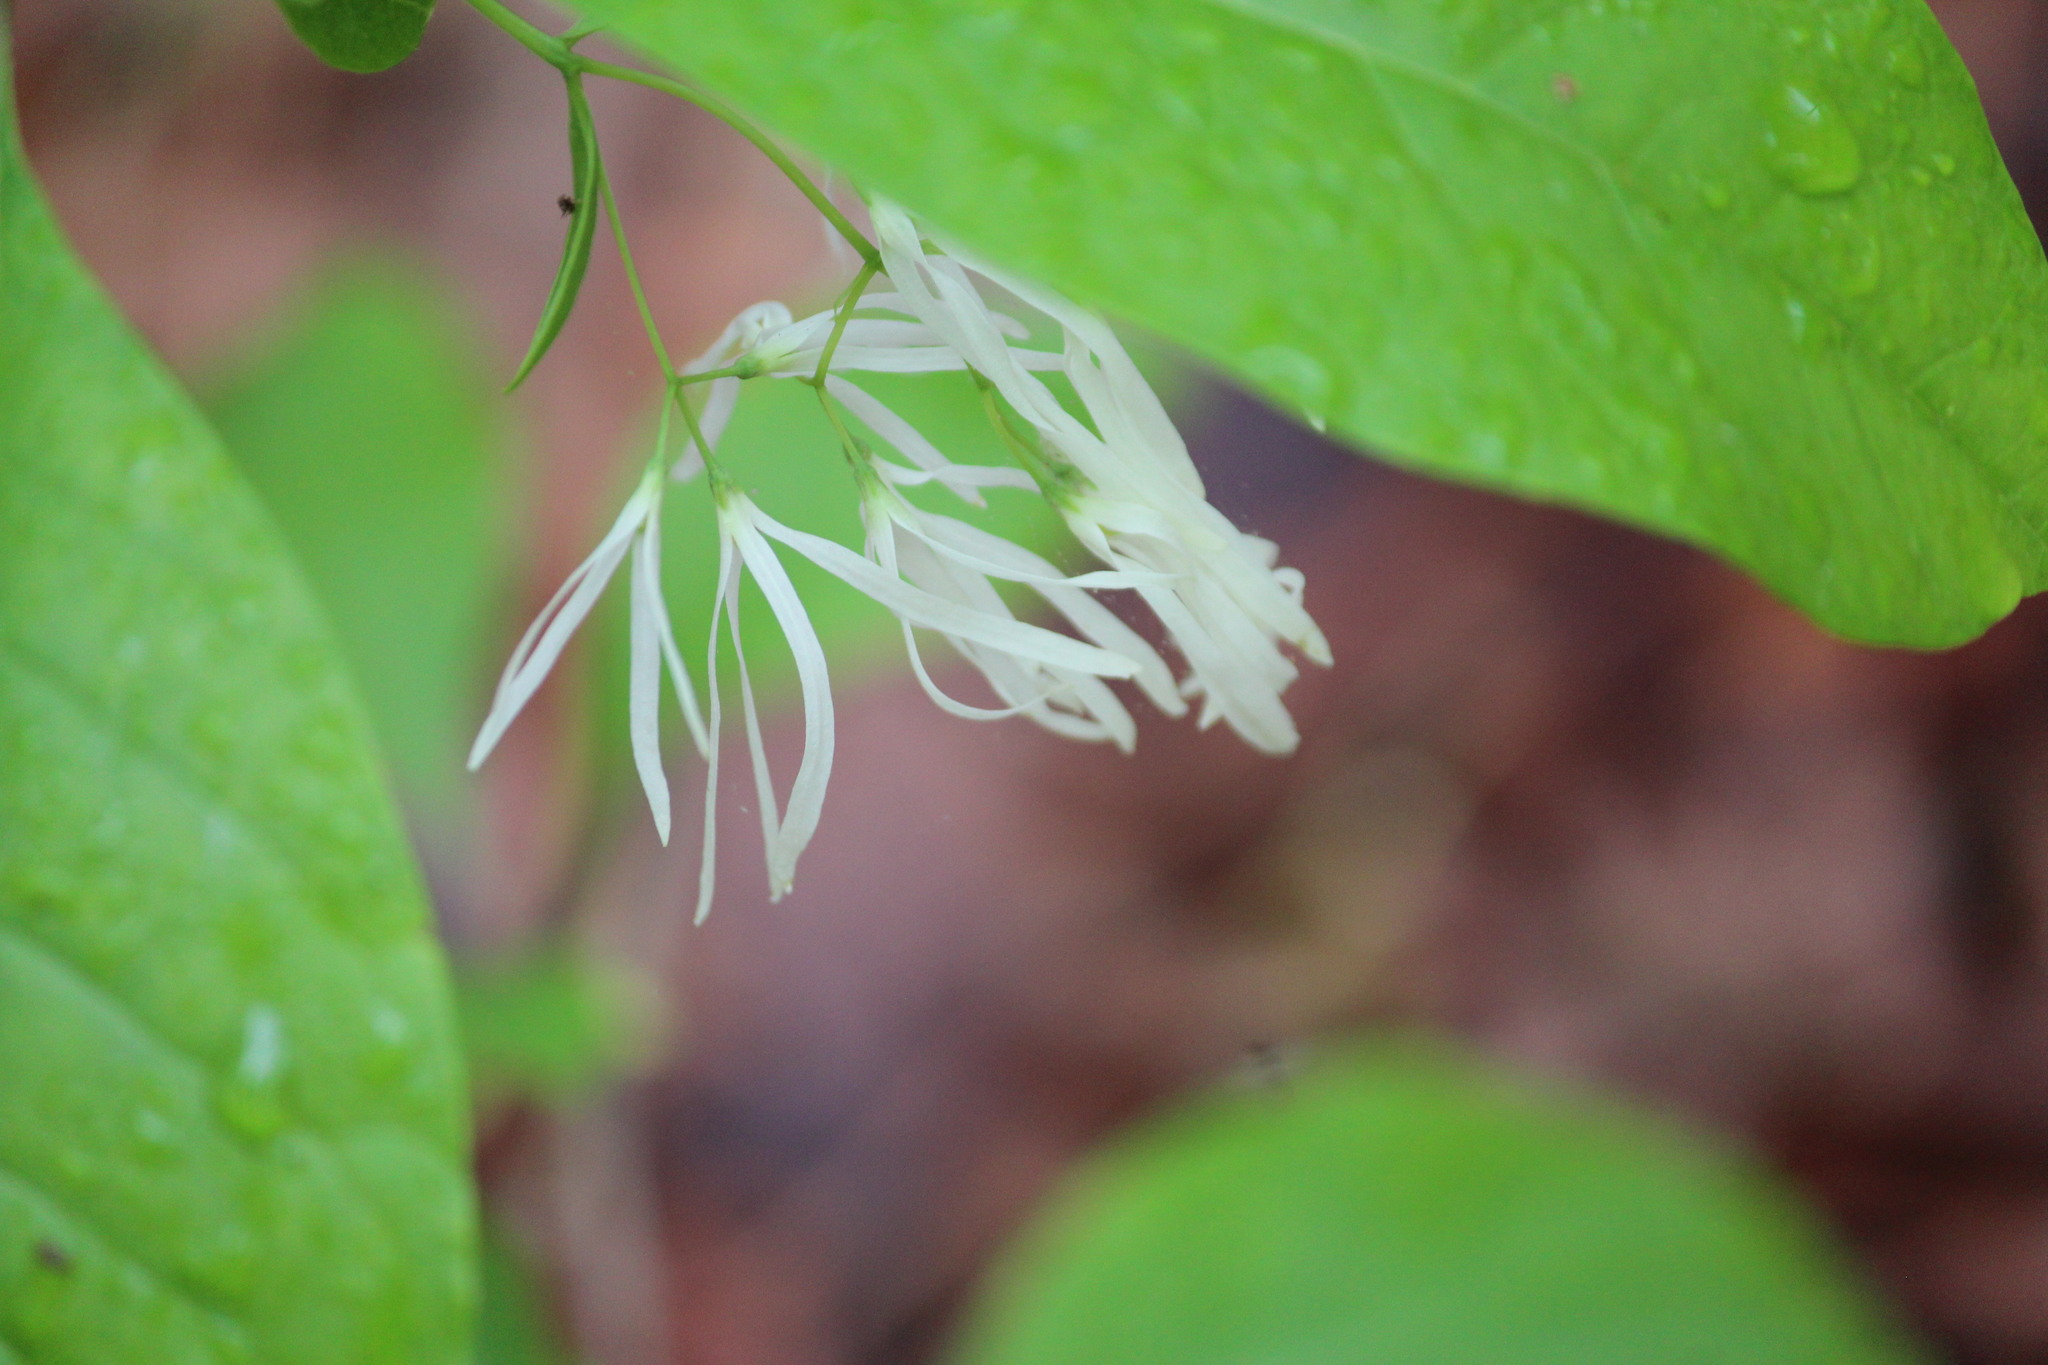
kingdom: Plantae
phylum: Tracheophyta
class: Magnoliopsida
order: Lamiales
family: Oleaceae
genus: Chionanthus
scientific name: Chionanthus virginicus
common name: American fringetree
